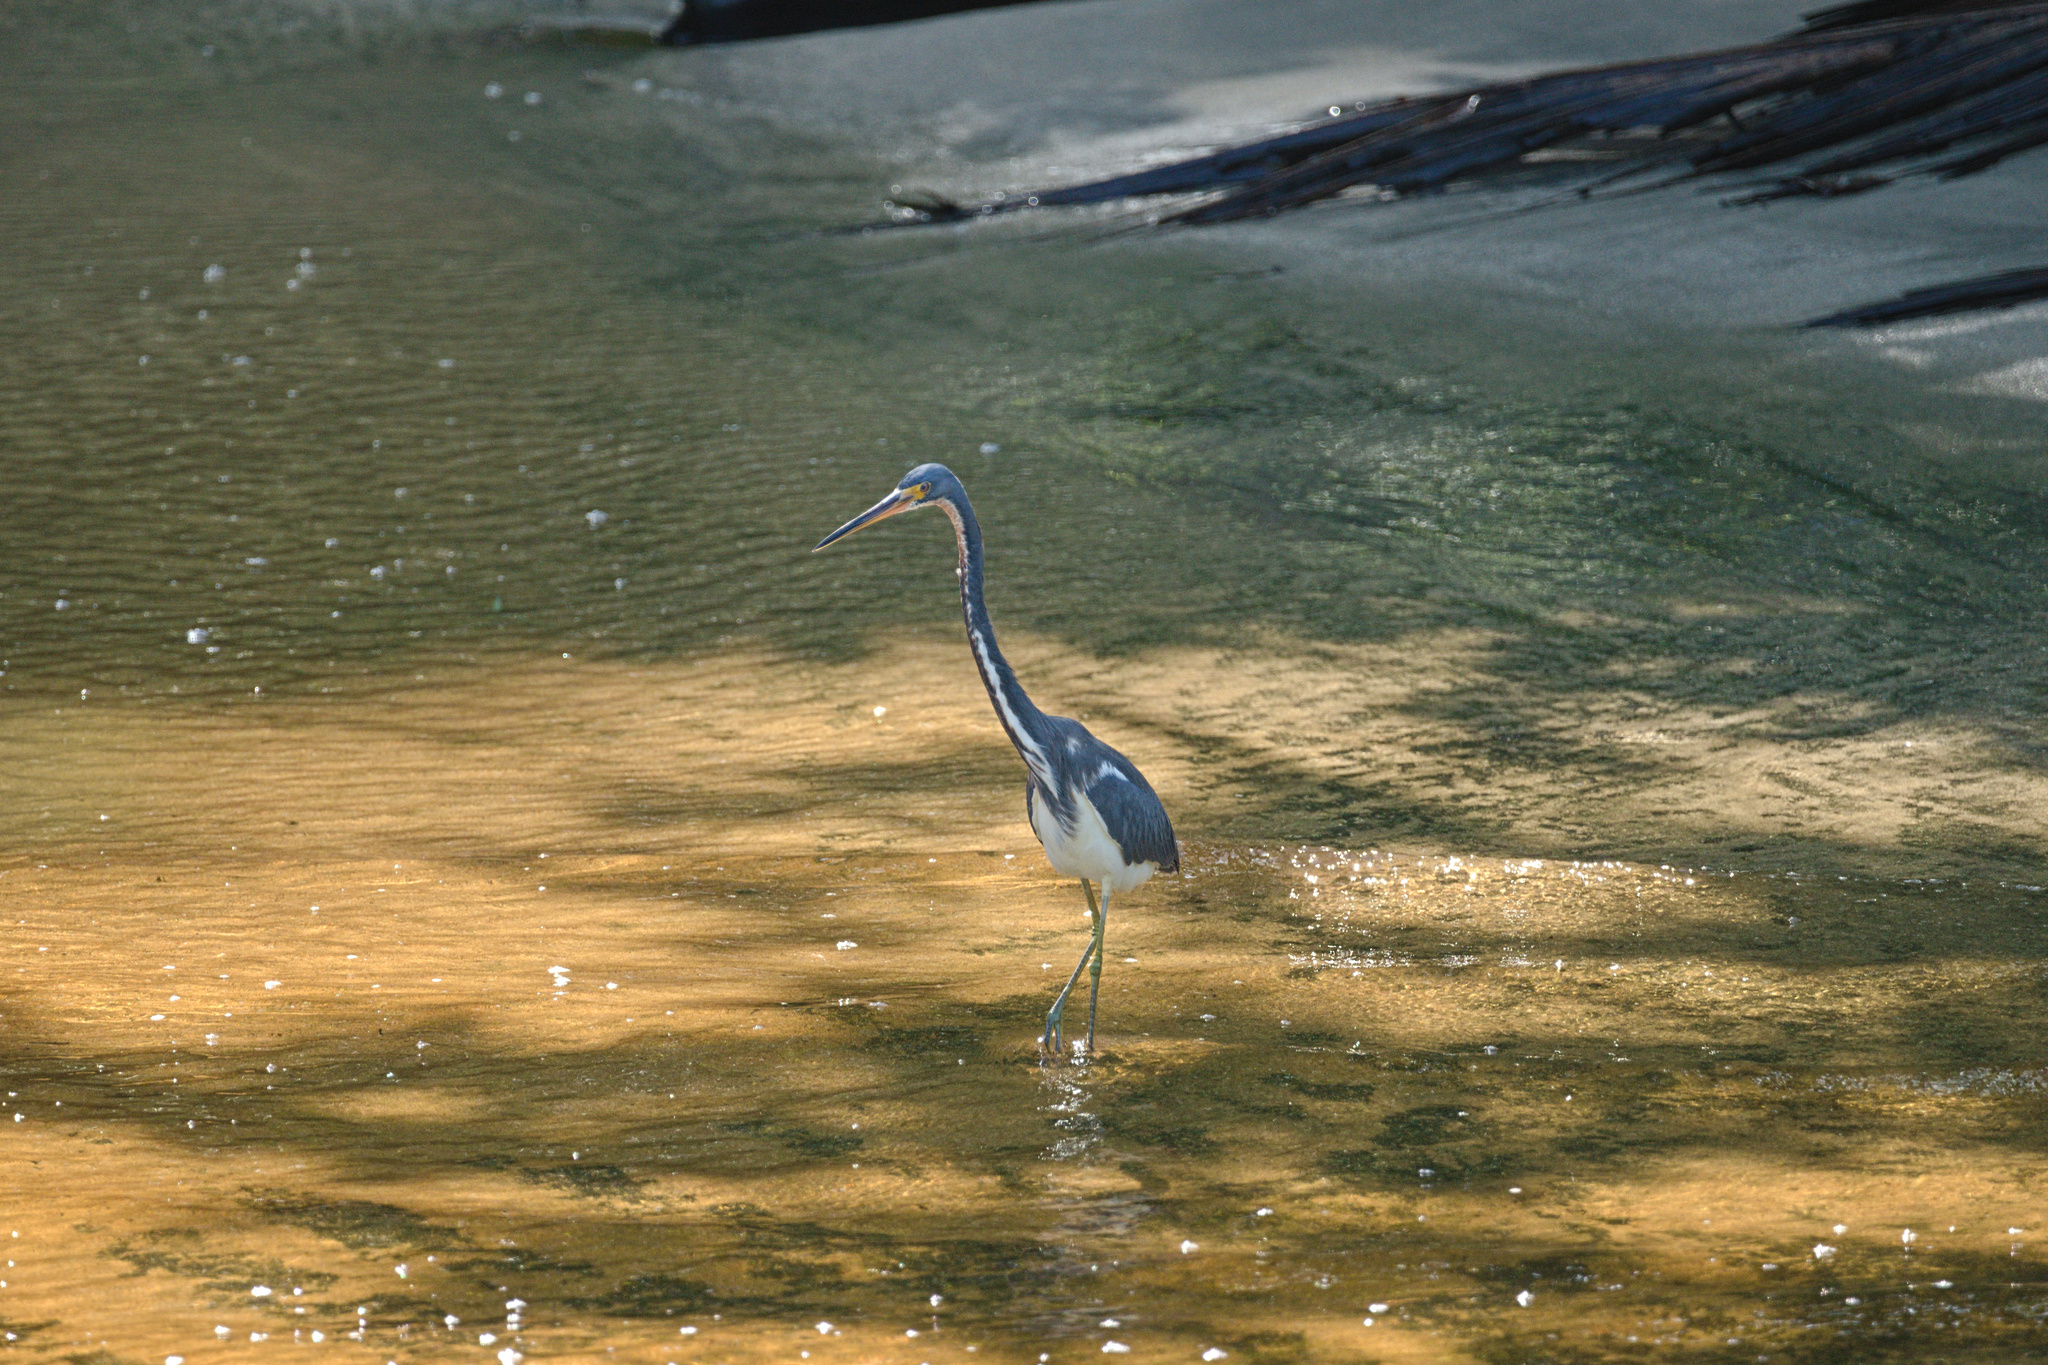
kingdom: Animalia
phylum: Chordata
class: Aves
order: Pelecaniformes
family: Ardeidae
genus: Egretta
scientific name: Egretta tricolor
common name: Tricolored heron
